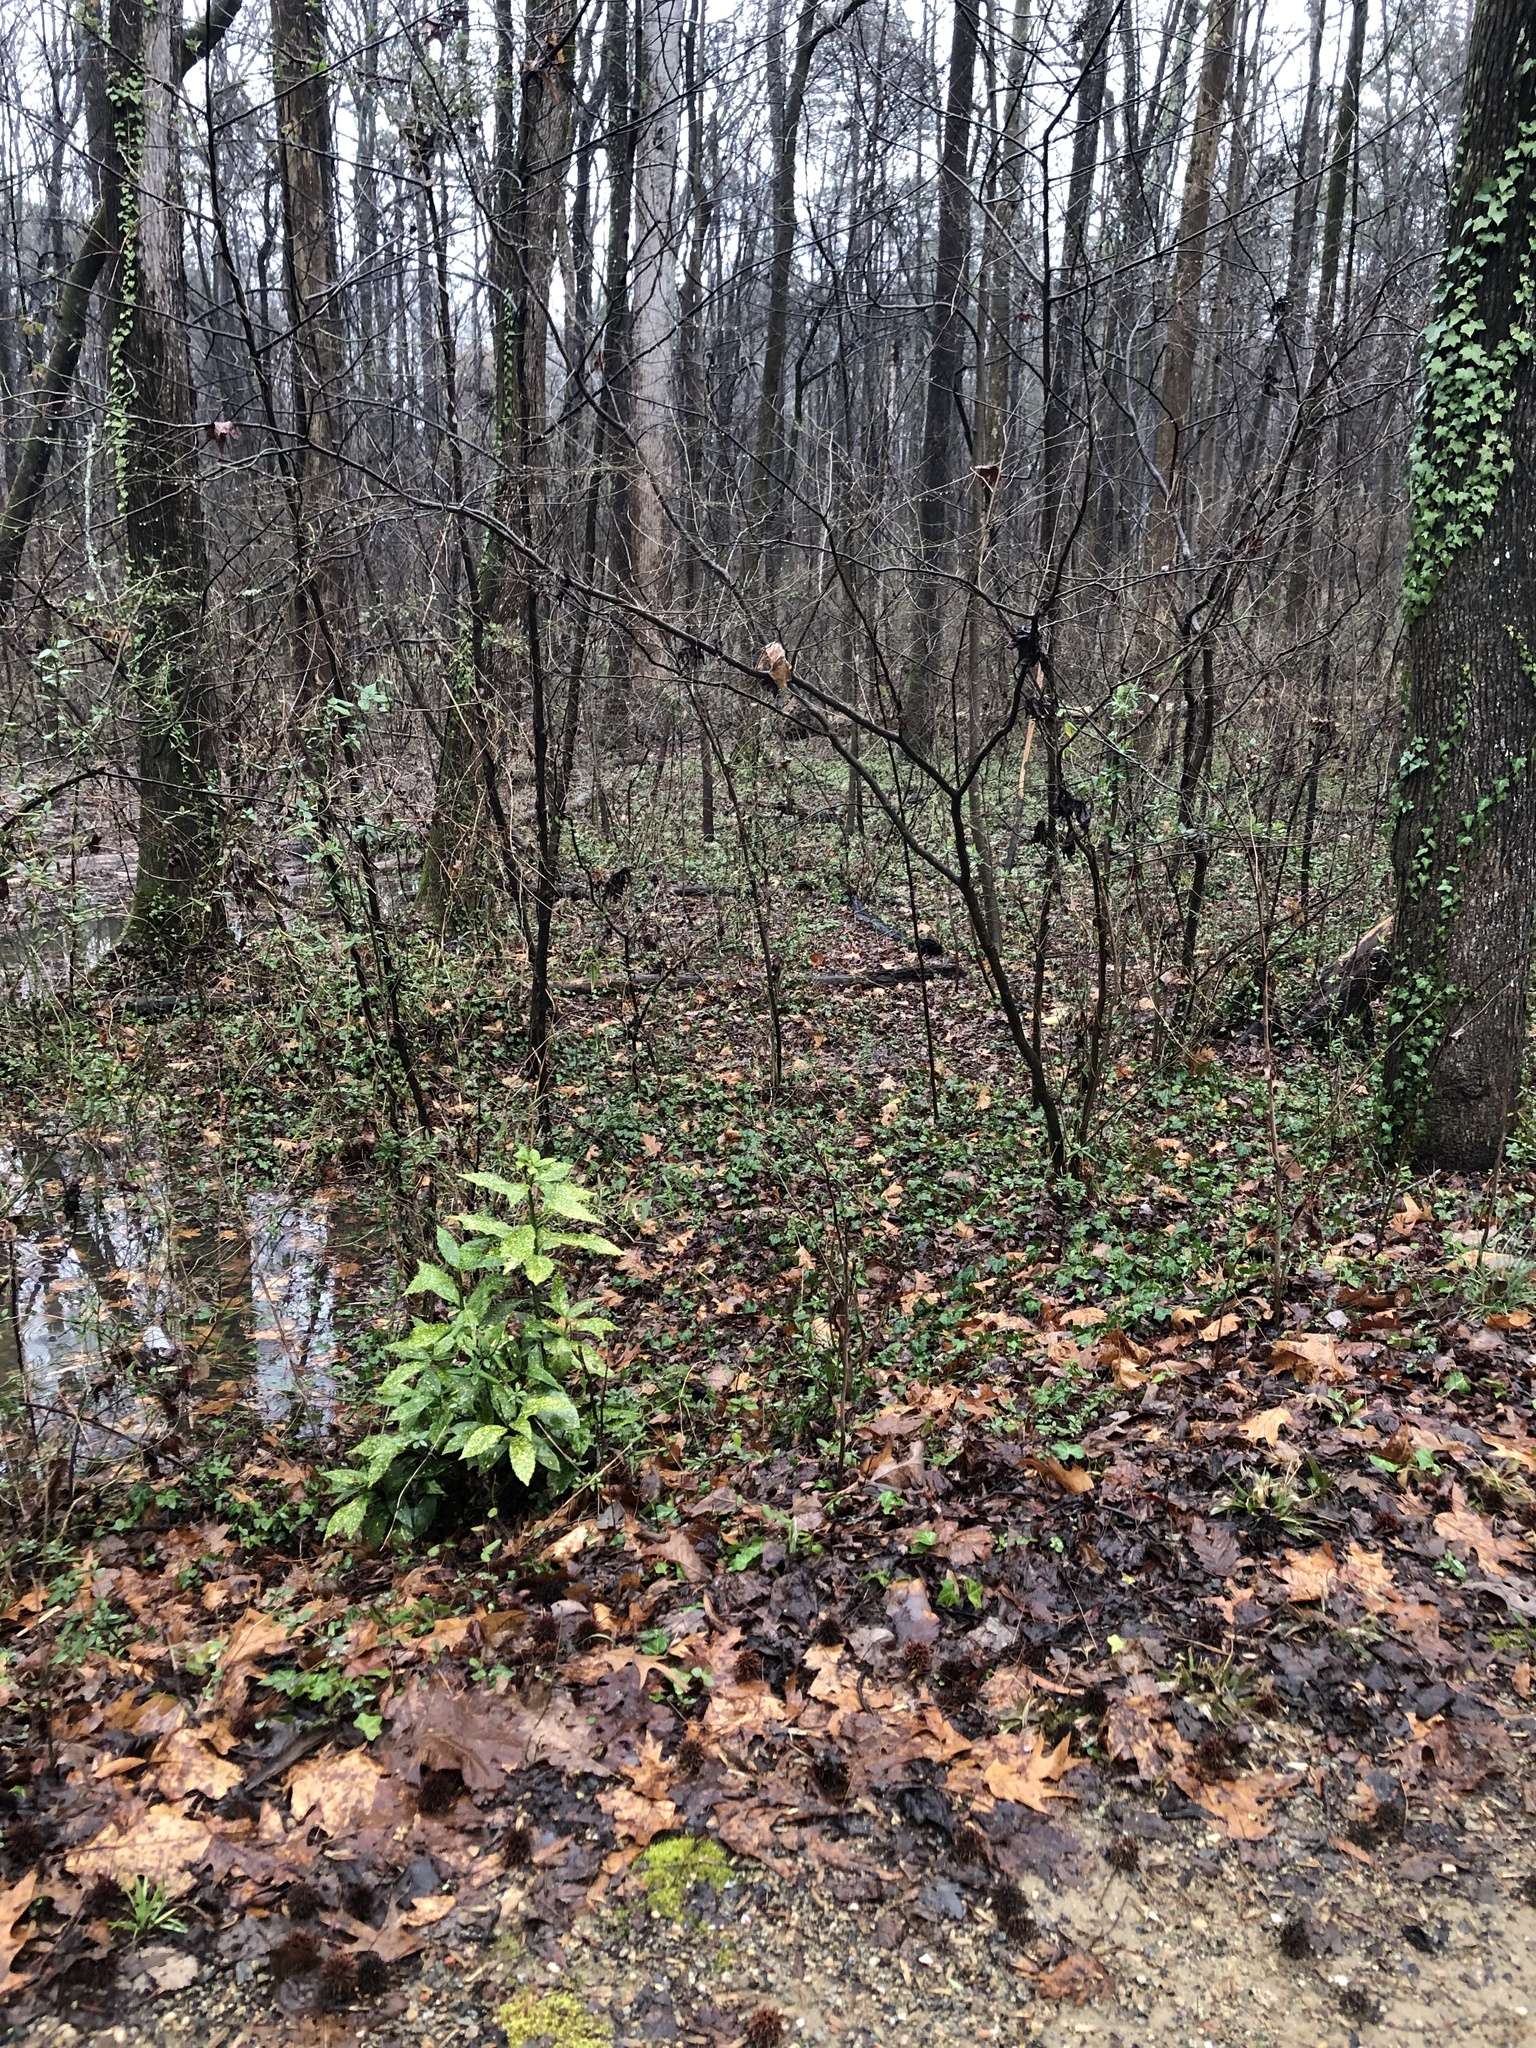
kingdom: Plantae
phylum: Tracheophyta
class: Magnoliopsida
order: Garryales
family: Garryaceae
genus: Aucuba
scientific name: Aucuba japonica
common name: Spotted-laurel
